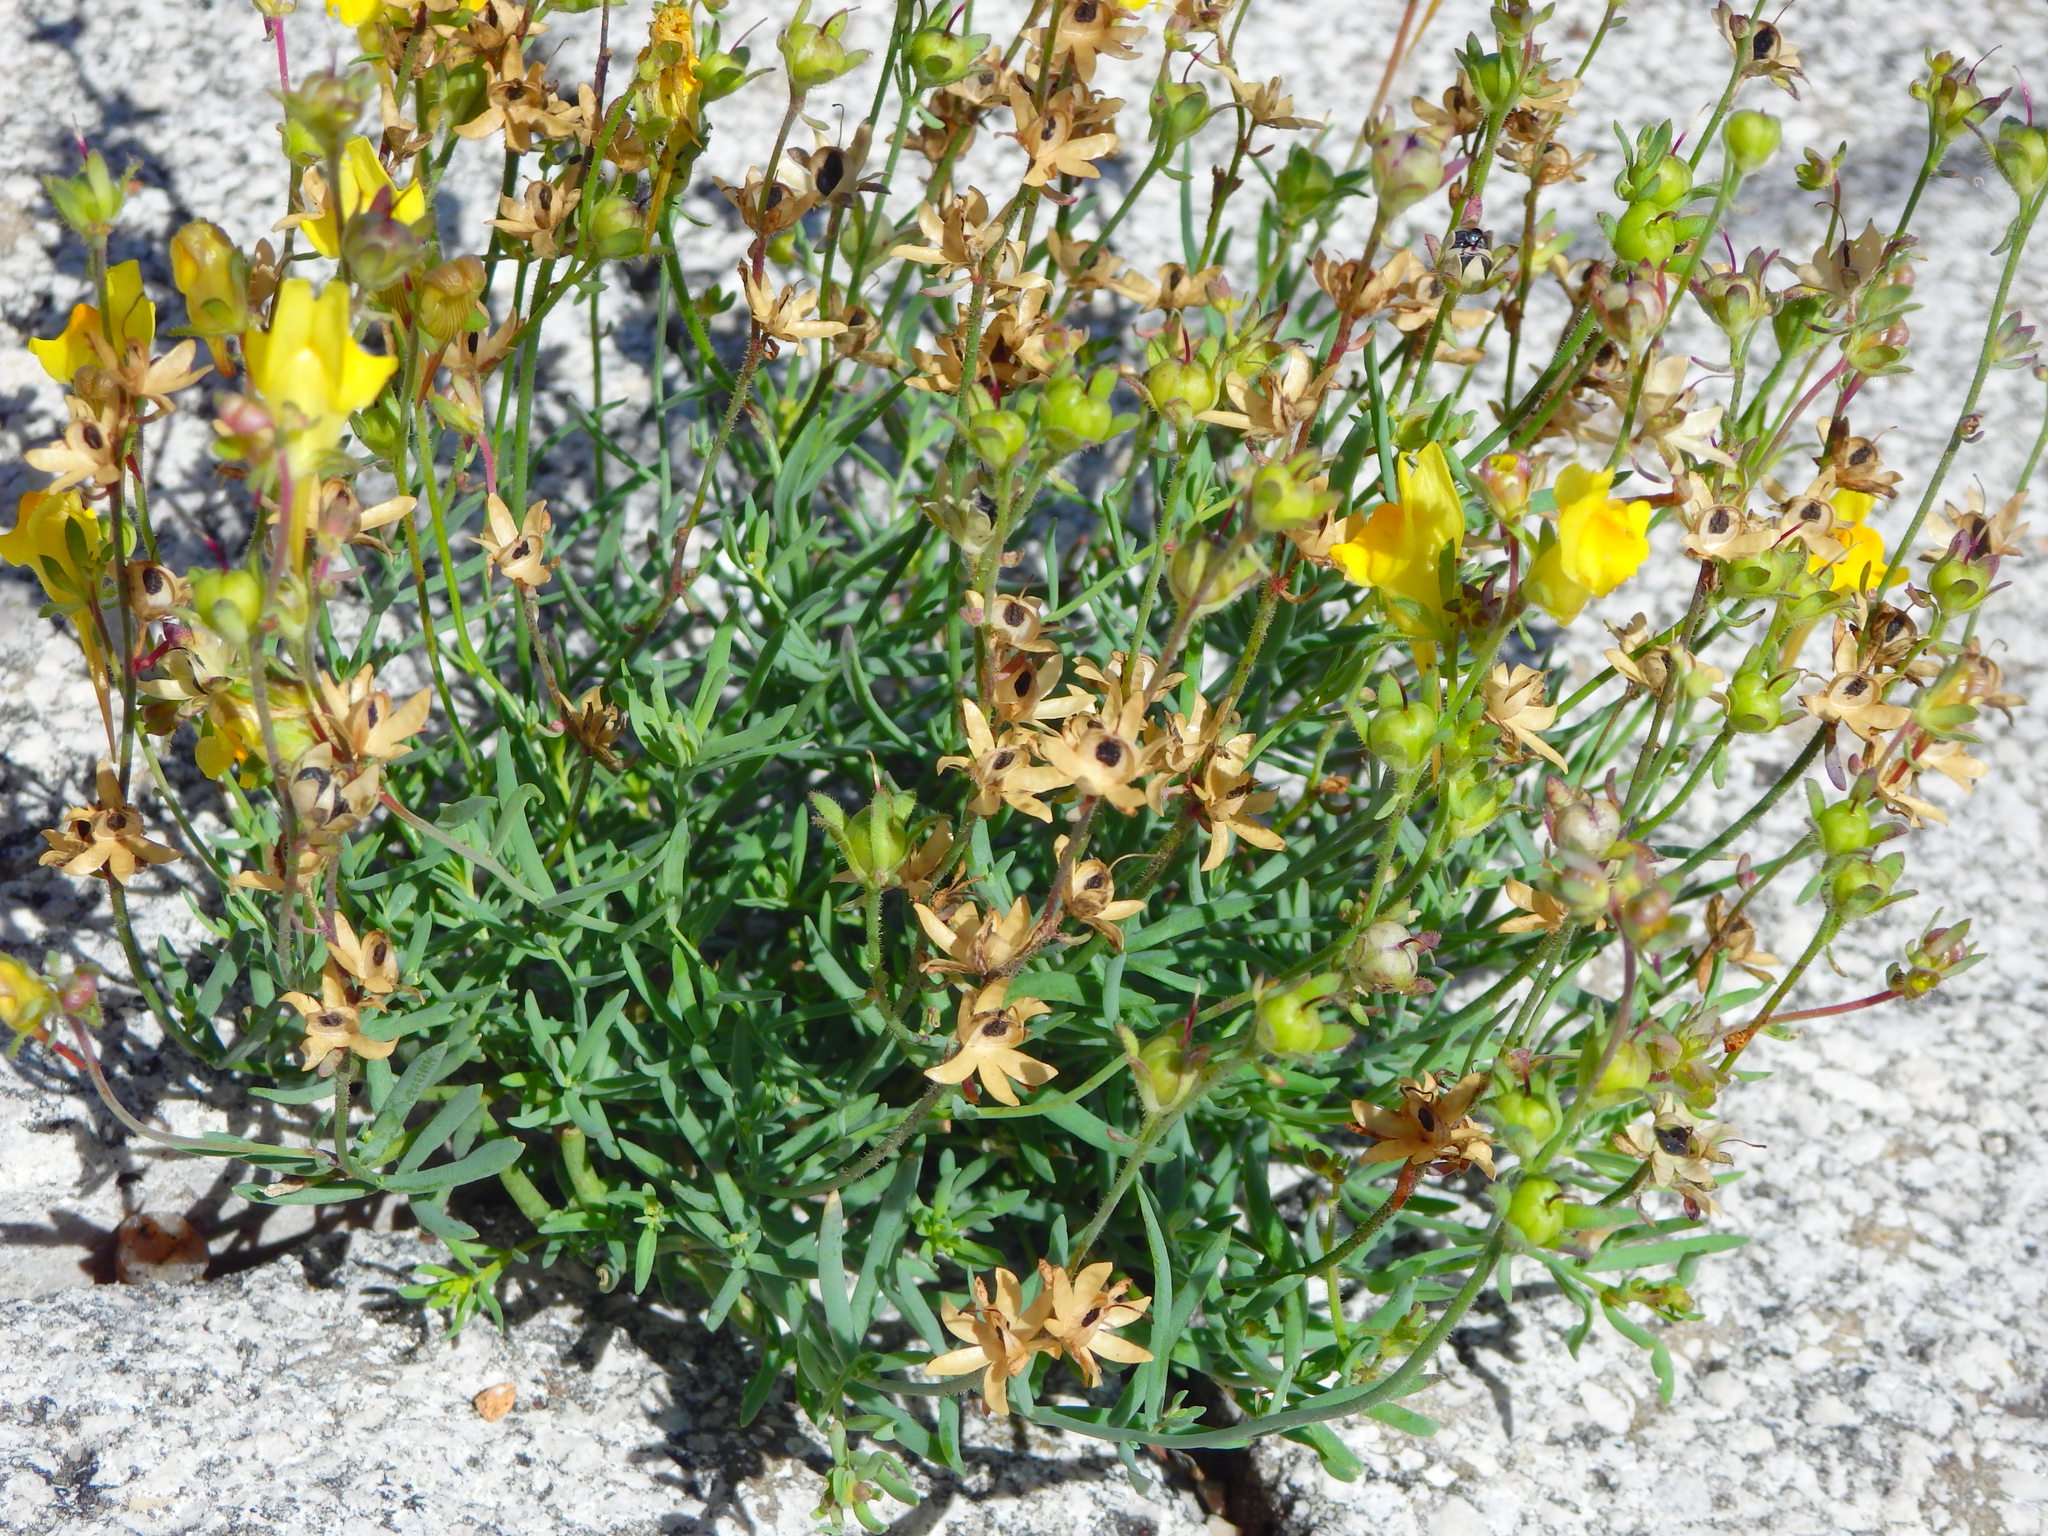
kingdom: Plantae
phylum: Tracheophyta
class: Magnoliopsida
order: Lamiales
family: Plantaginaceae
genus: Linaria
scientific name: Linaria supina
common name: Prostrate toadflax
